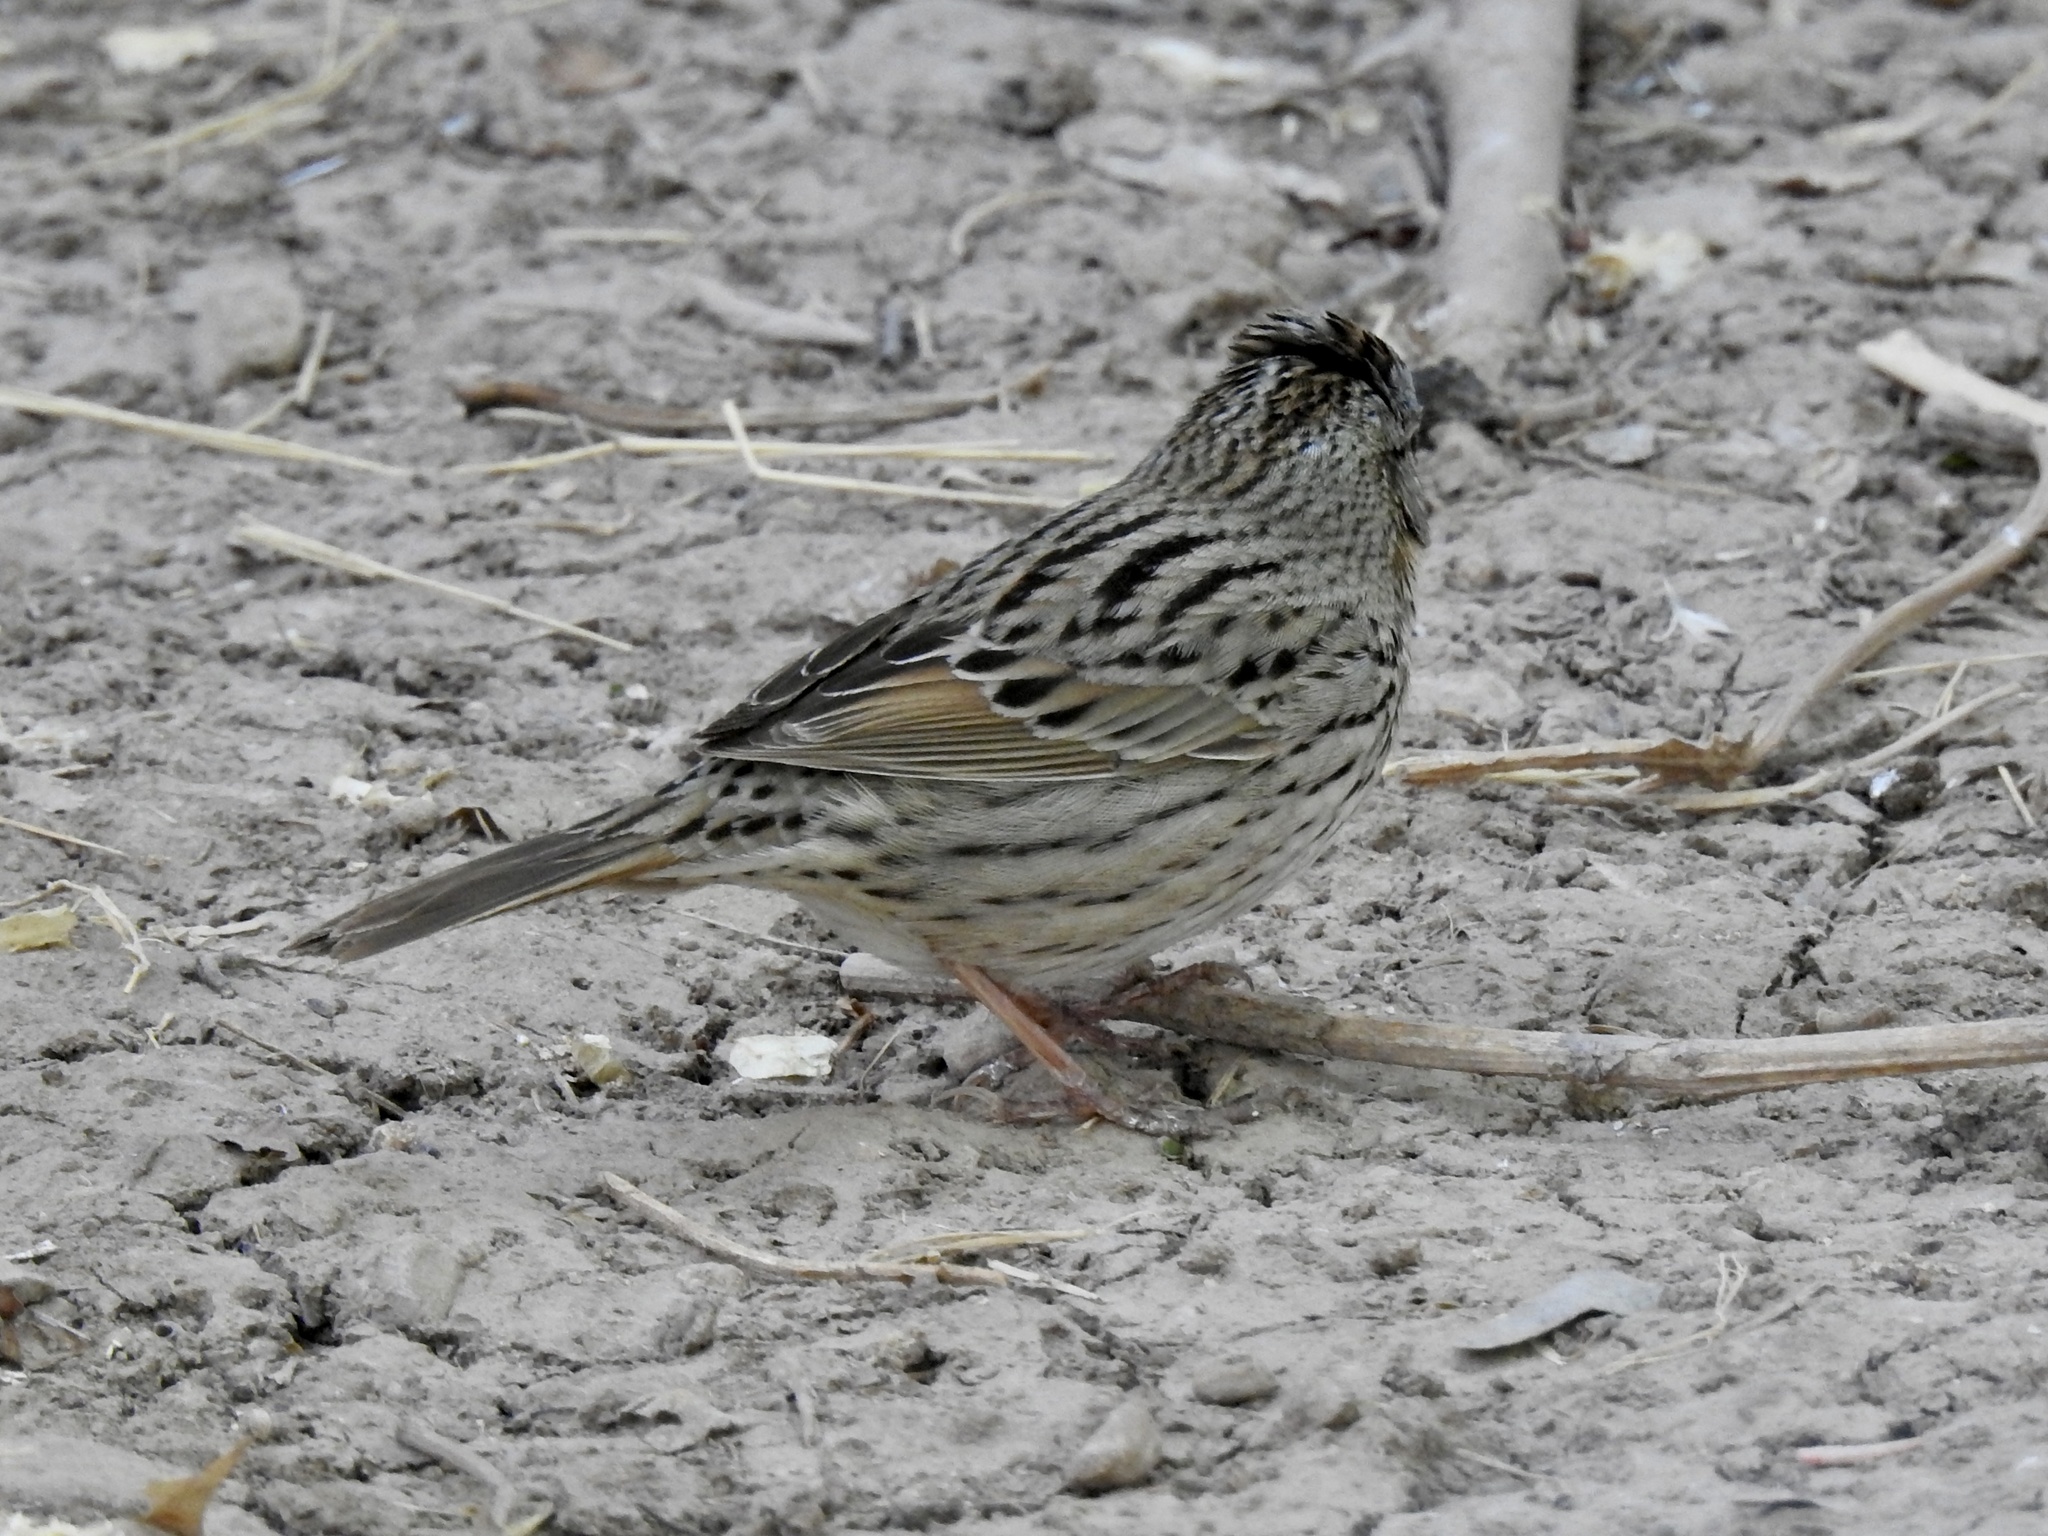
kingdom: Animalia
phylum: Chordata
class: Aves
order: Passeriformes
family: Passerellidae
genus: Melospiza
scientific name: Melospiza lincolnii
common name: Lincoln's sparrow
